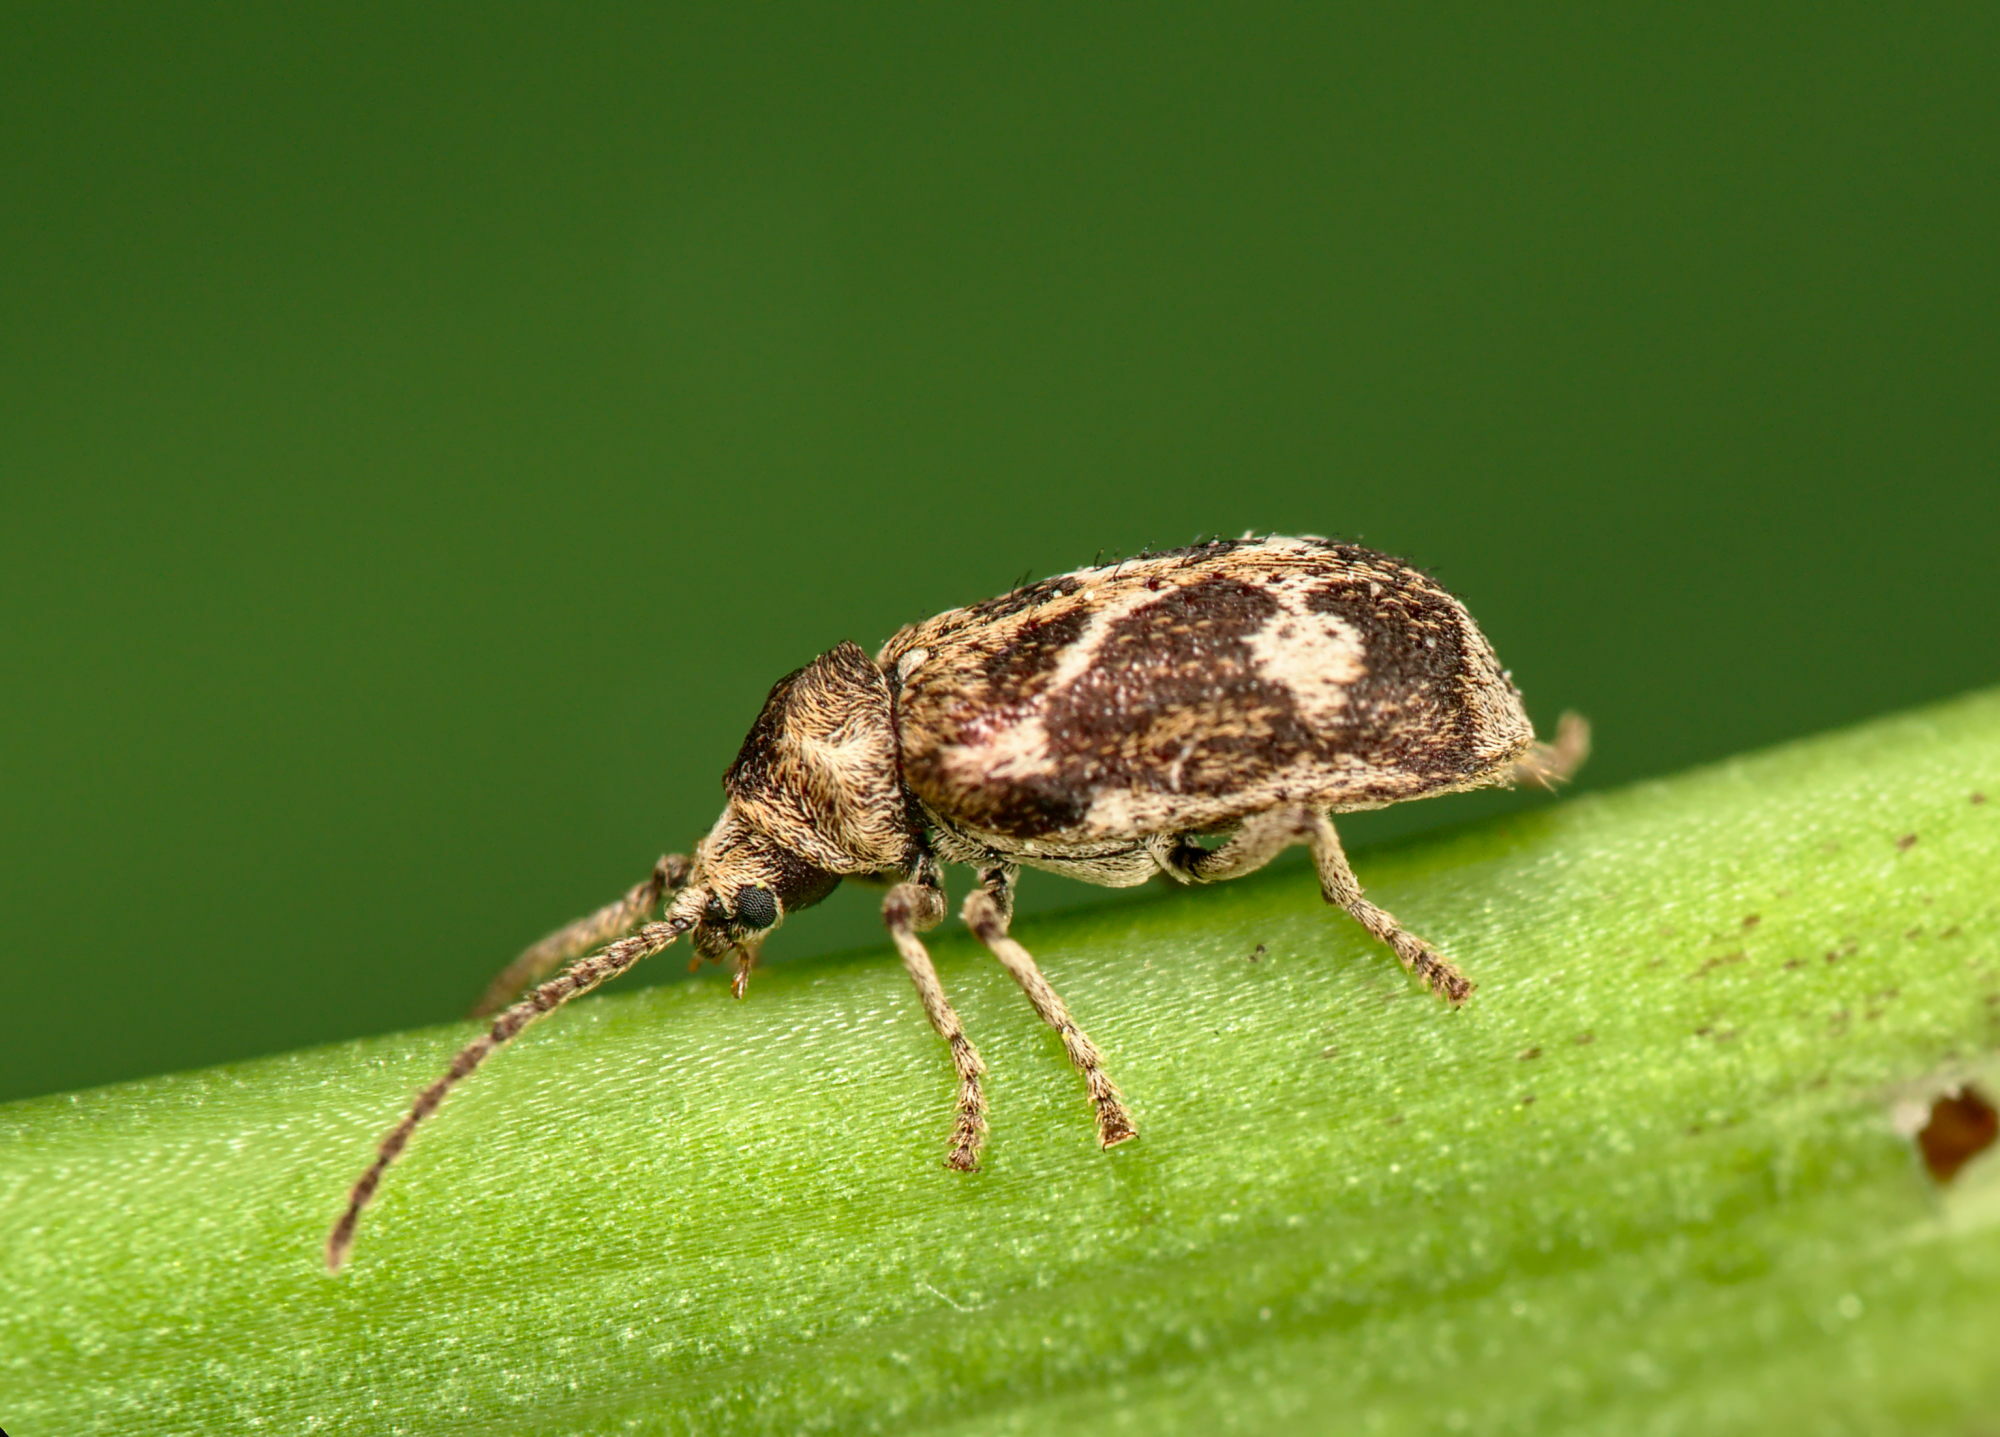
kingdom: Animalia
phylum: Arthropoda
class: Insecta
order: Coleoptera
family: Anobiidae
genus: Ptinomorphus
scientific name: Ptinomorphus imperialis
